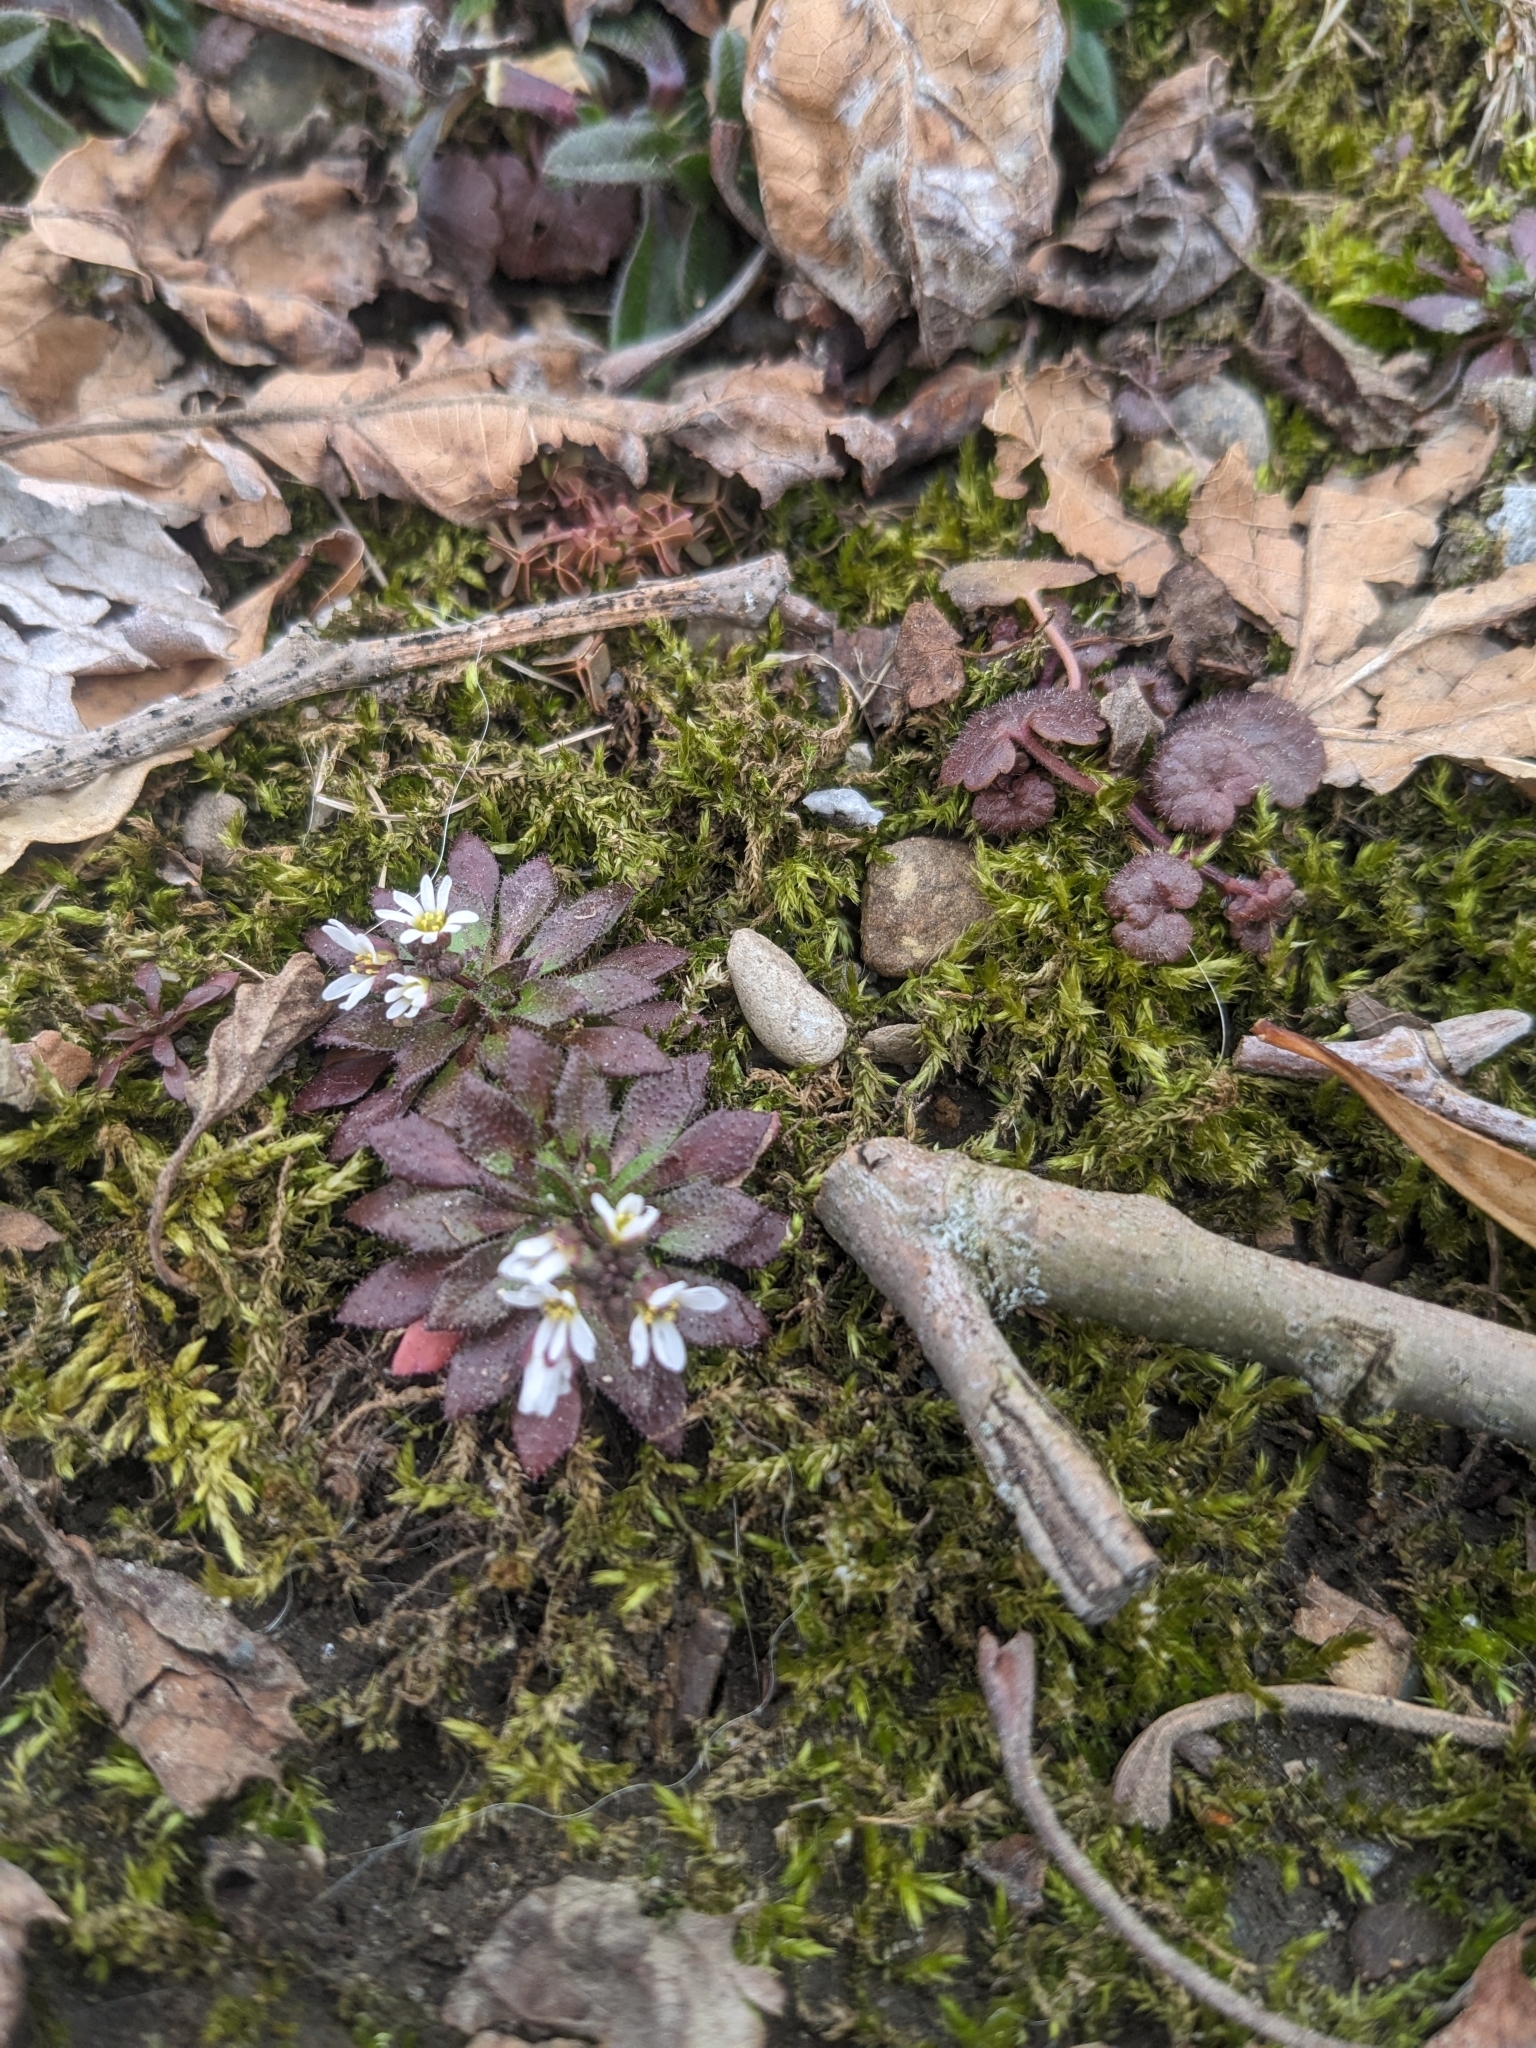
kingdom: Plantae
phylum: Tracheophyta
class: Magnoliopsida
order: Brassicales
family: Brassicaceae
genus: Draba
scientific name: Draba verna
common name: Spring draba
